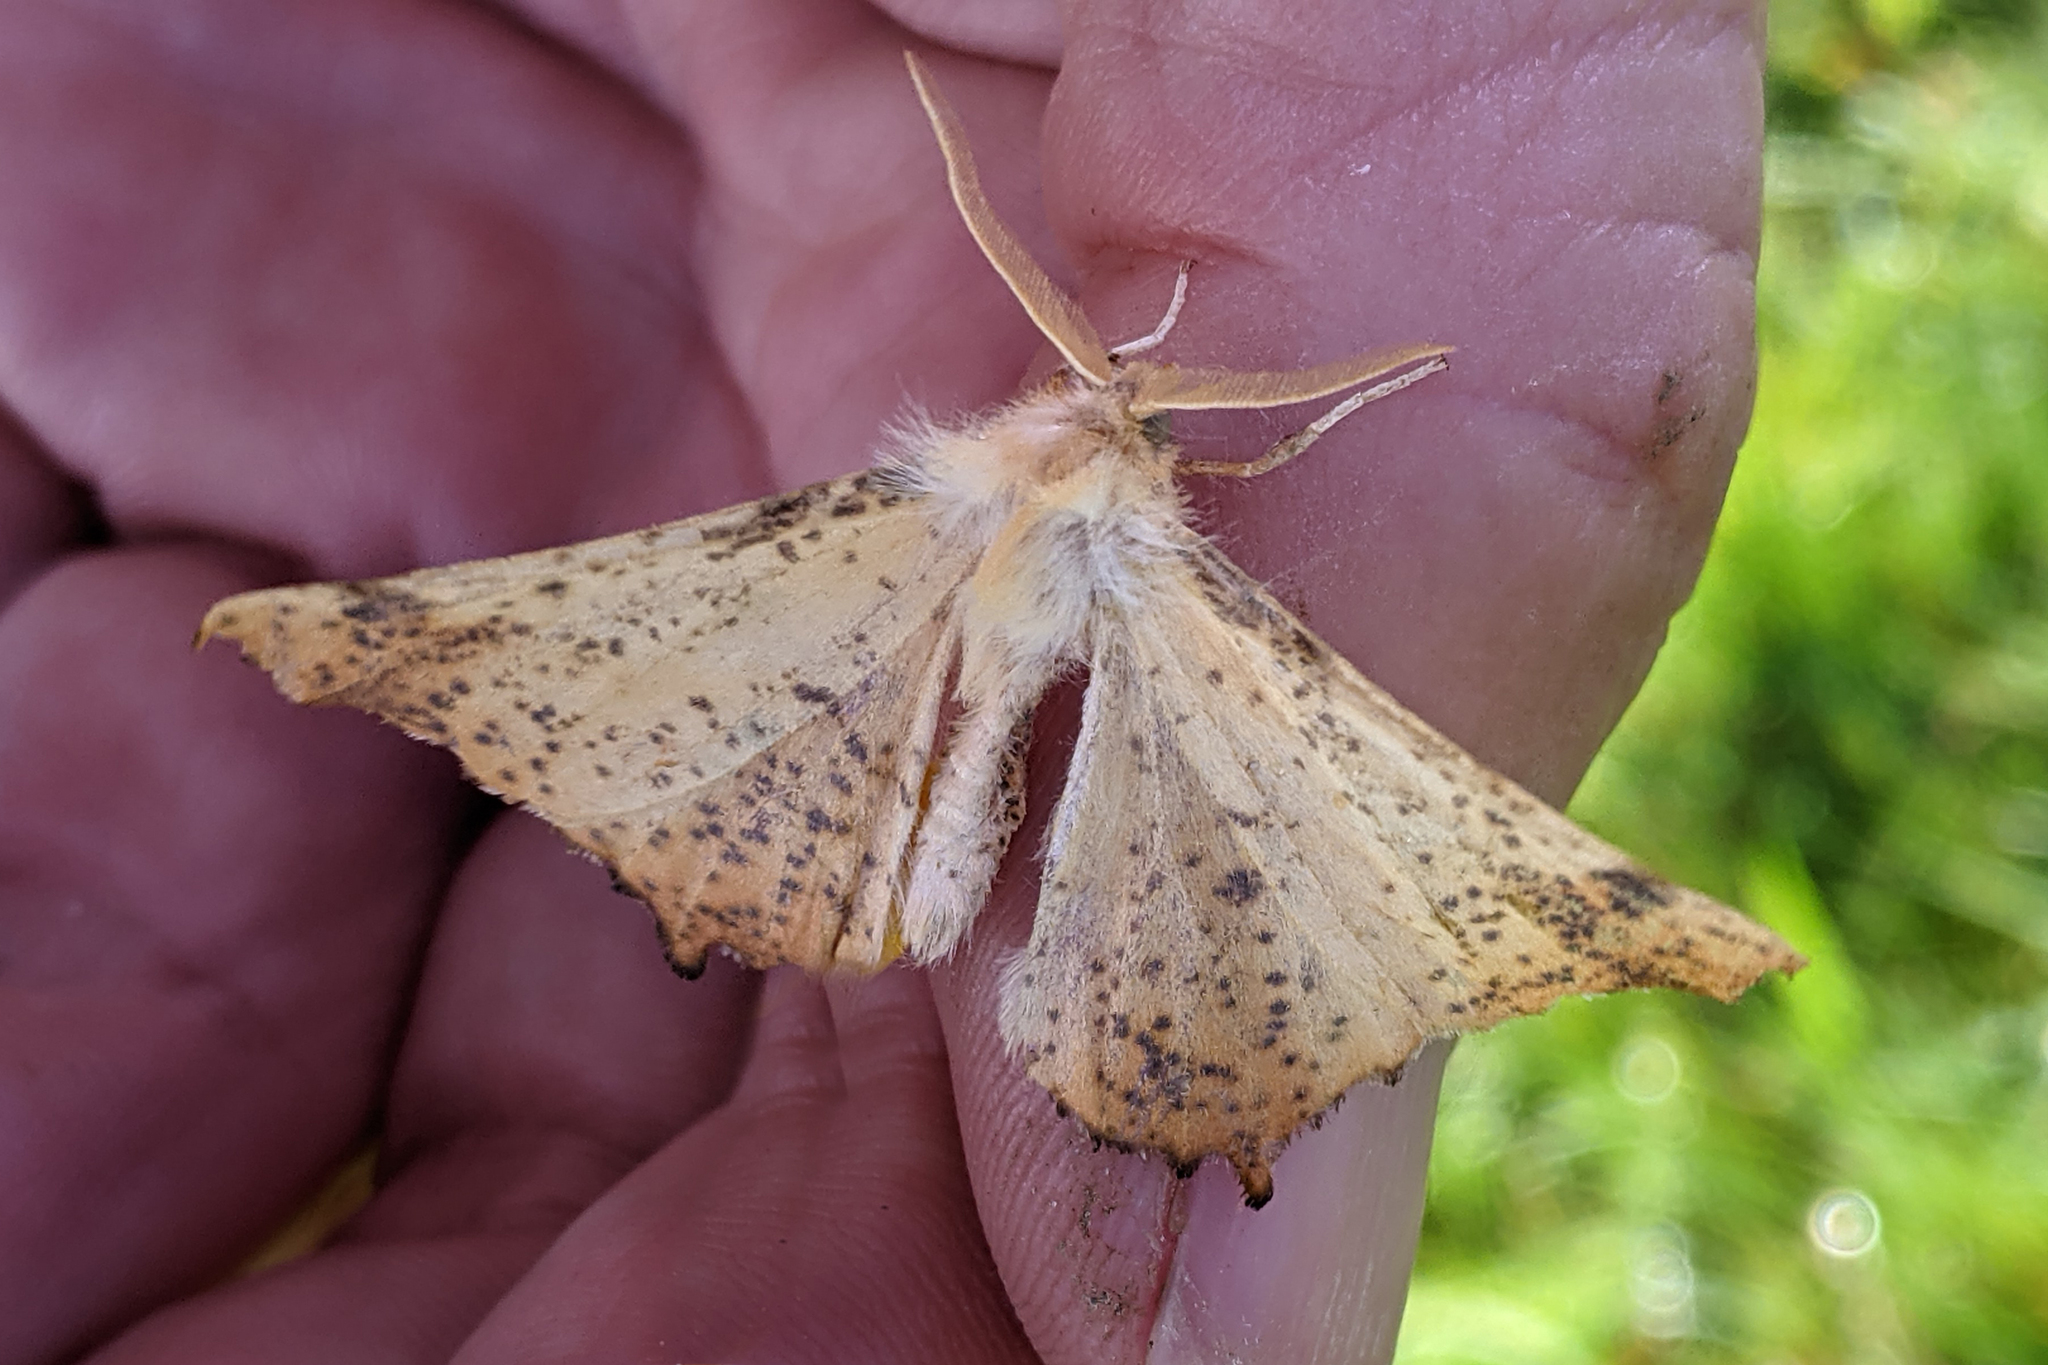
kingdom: Animalia
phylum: Arthropoda
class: Insecta
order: Lepidoptera
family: Geometridae
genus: Ennomos
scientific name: Ennomos magnaria
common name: Maple spanworm
